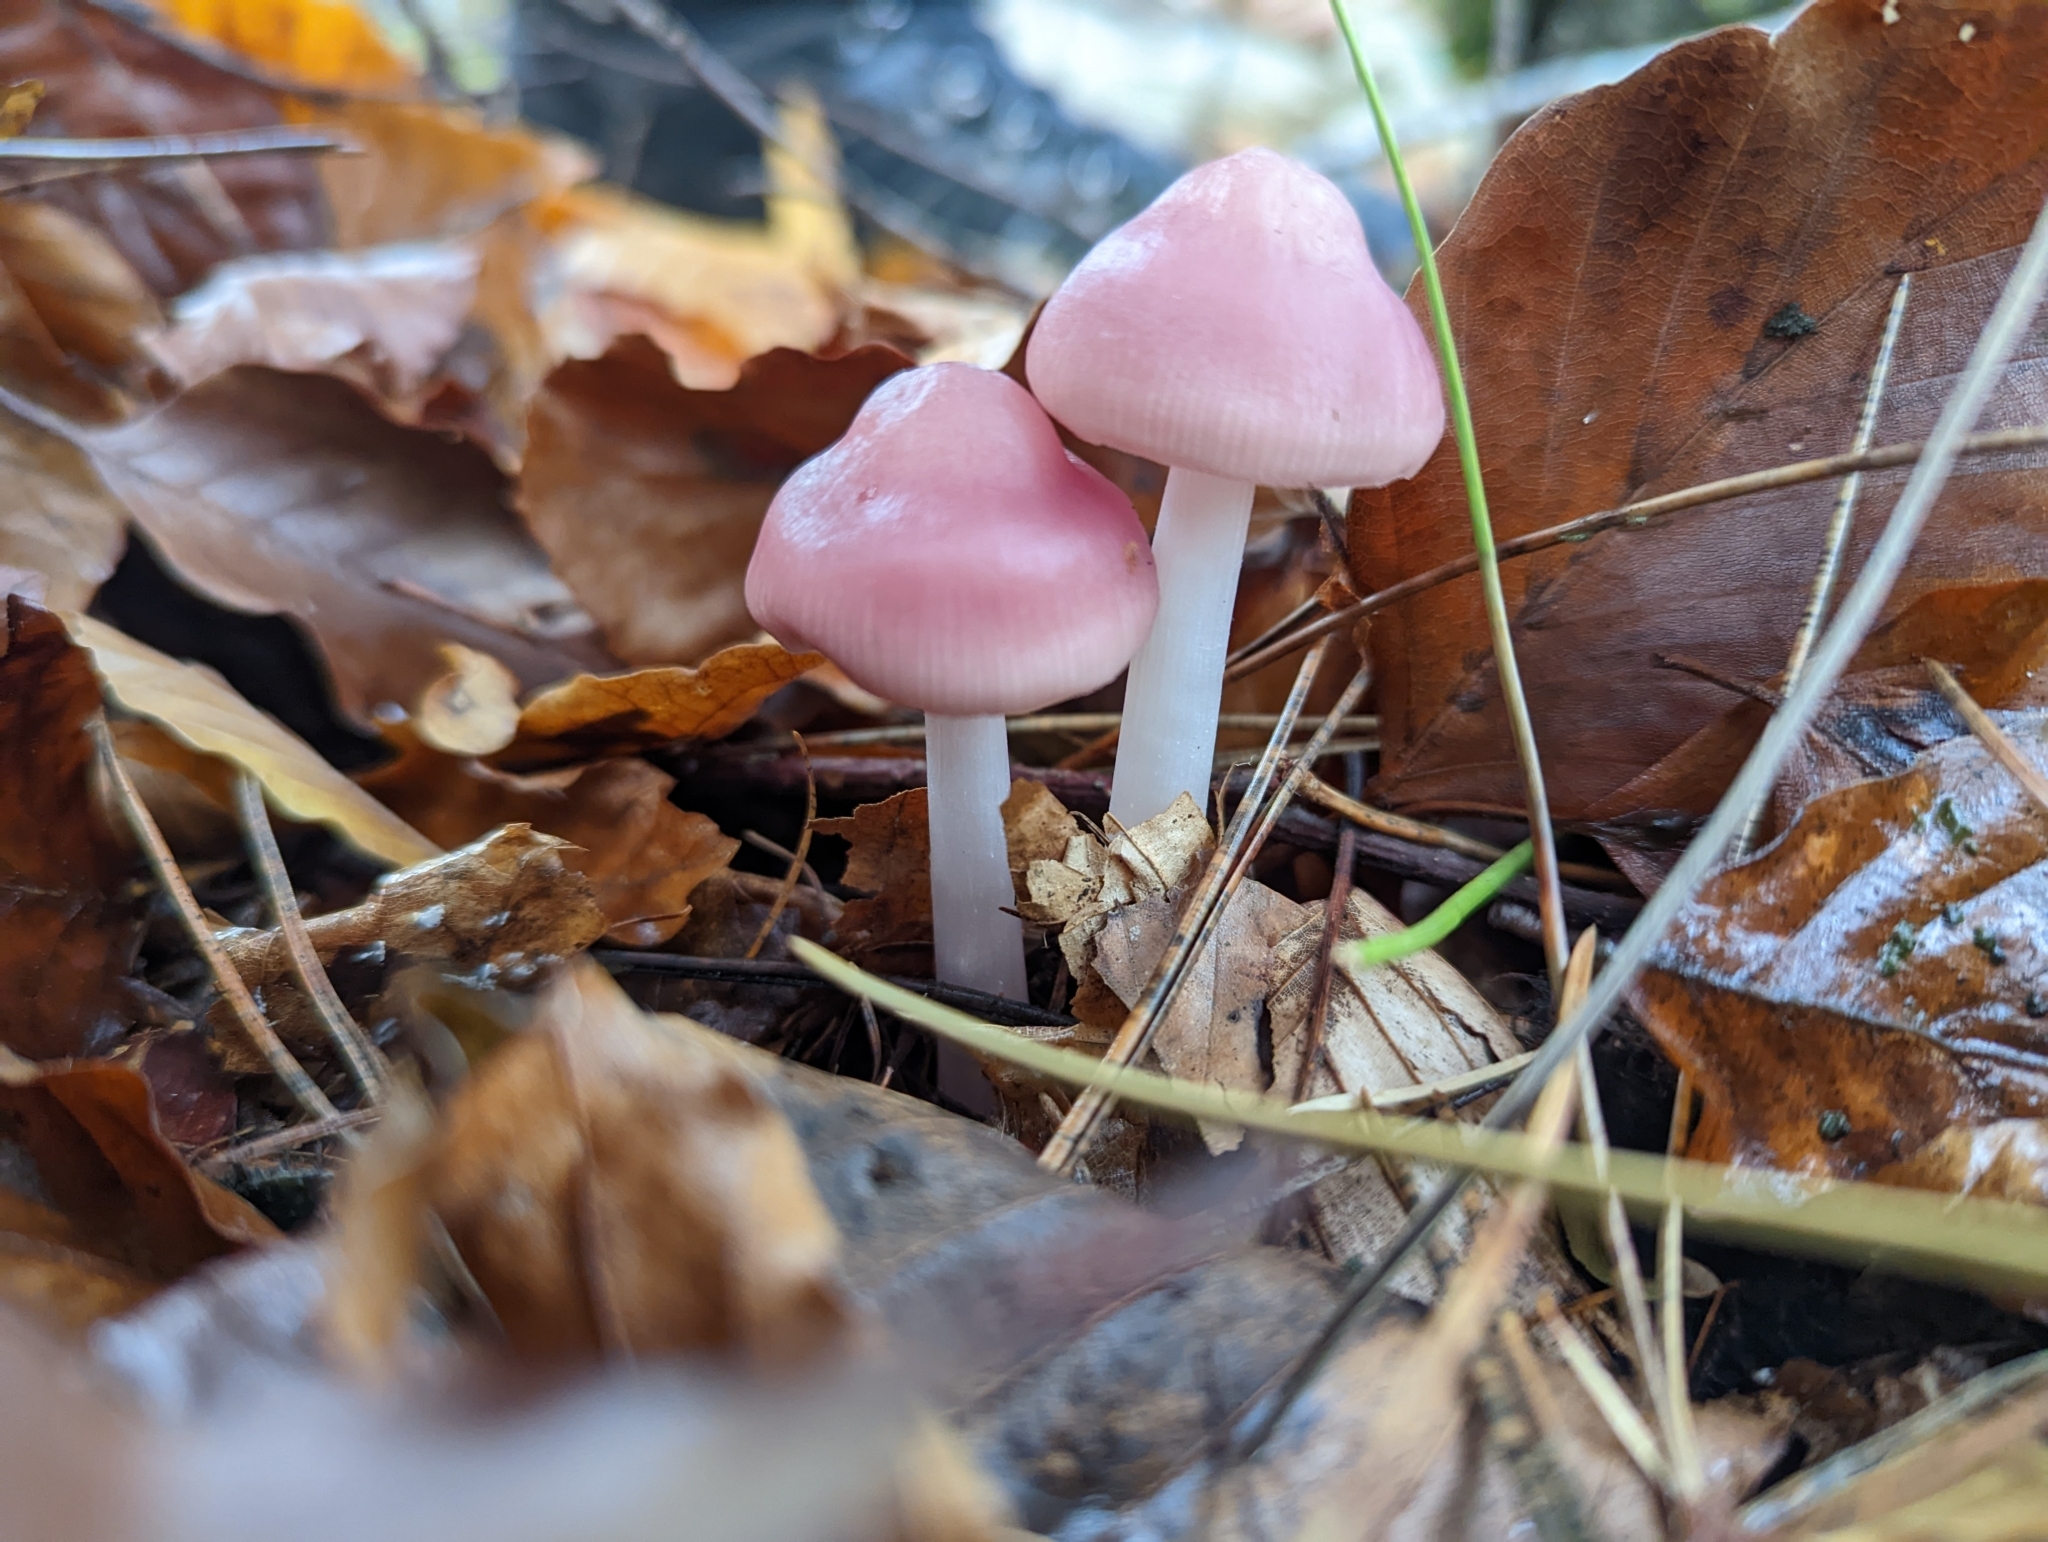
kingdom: Fungi
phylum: Basidiomycota
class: Agaricomycetes
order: Agaricales
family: Mycenaceae
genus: Mycena
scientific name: Mycena rosea
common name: Rosy bonnet
